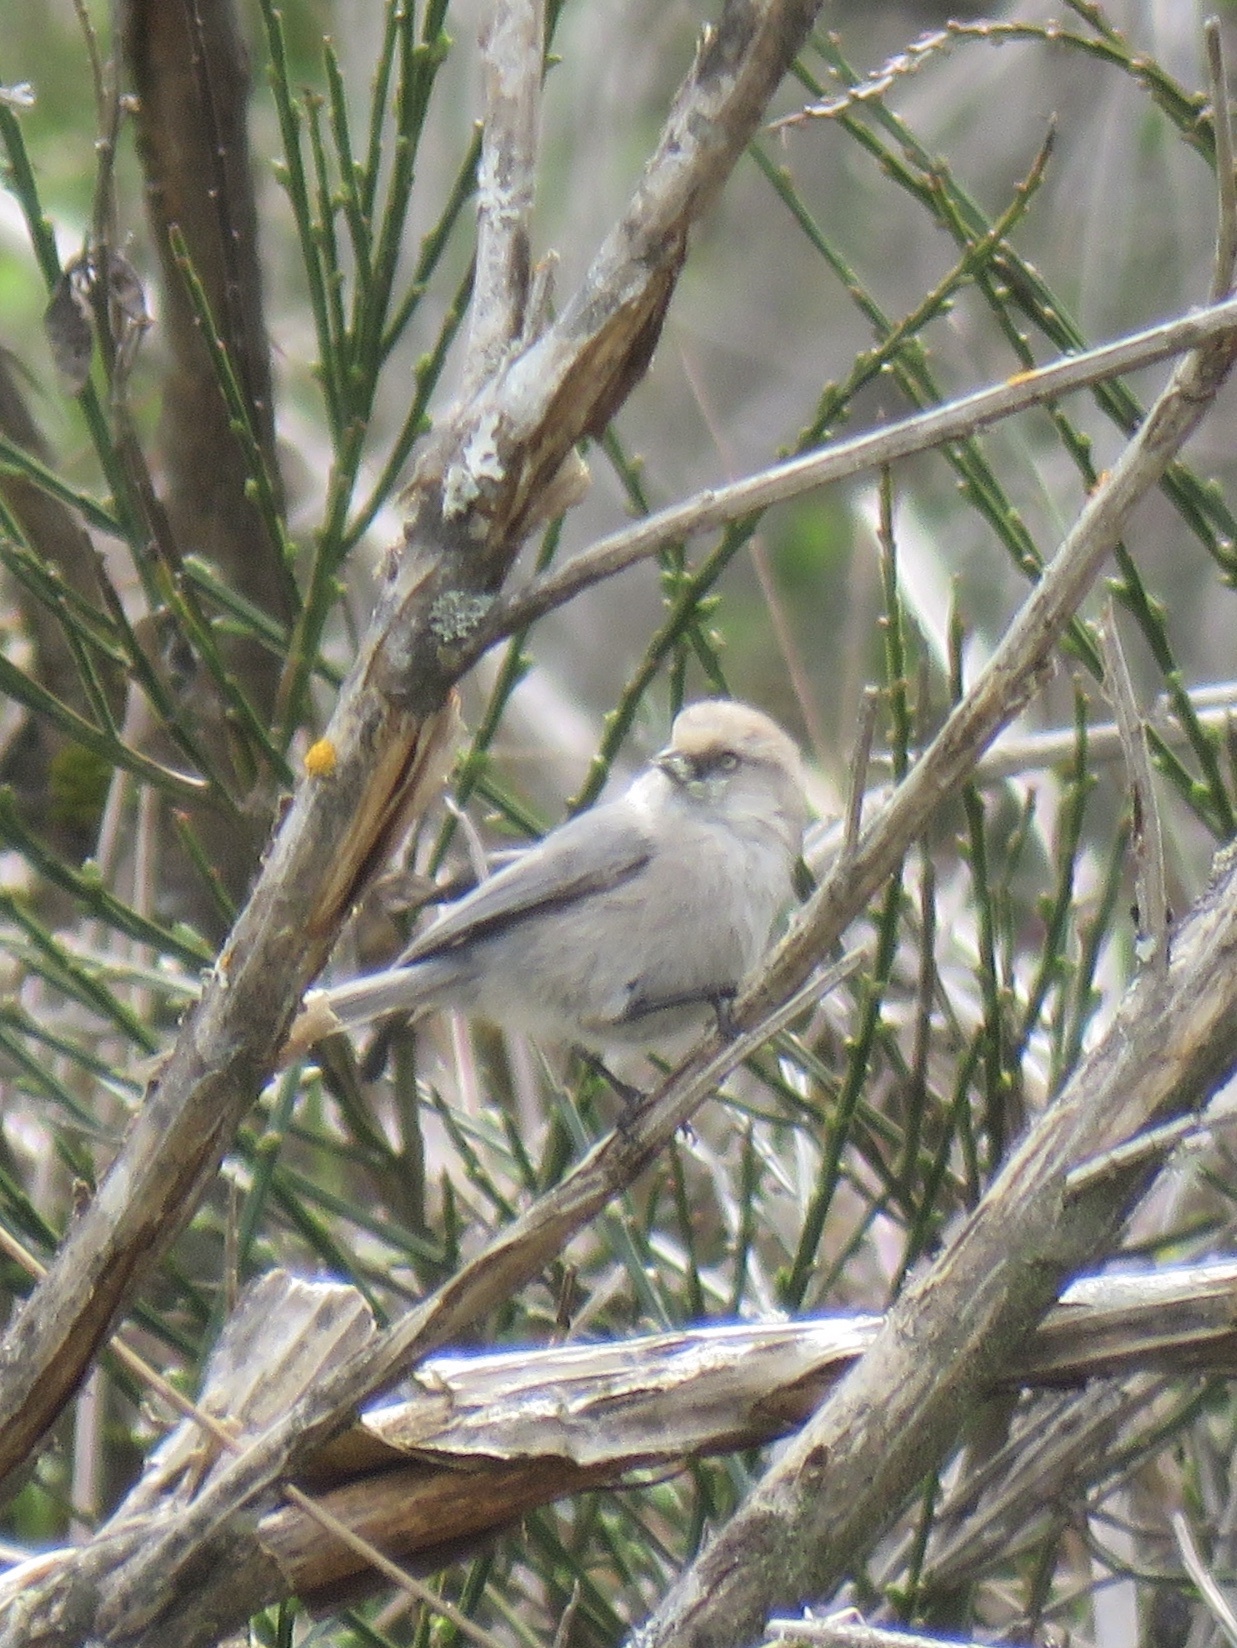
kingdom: Animalia
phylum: Chordata
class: Aves
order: Passeriformes
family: Aegithalidae
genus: Psaltriparus
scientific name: Psaltriparus minimus
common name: American bushtit
